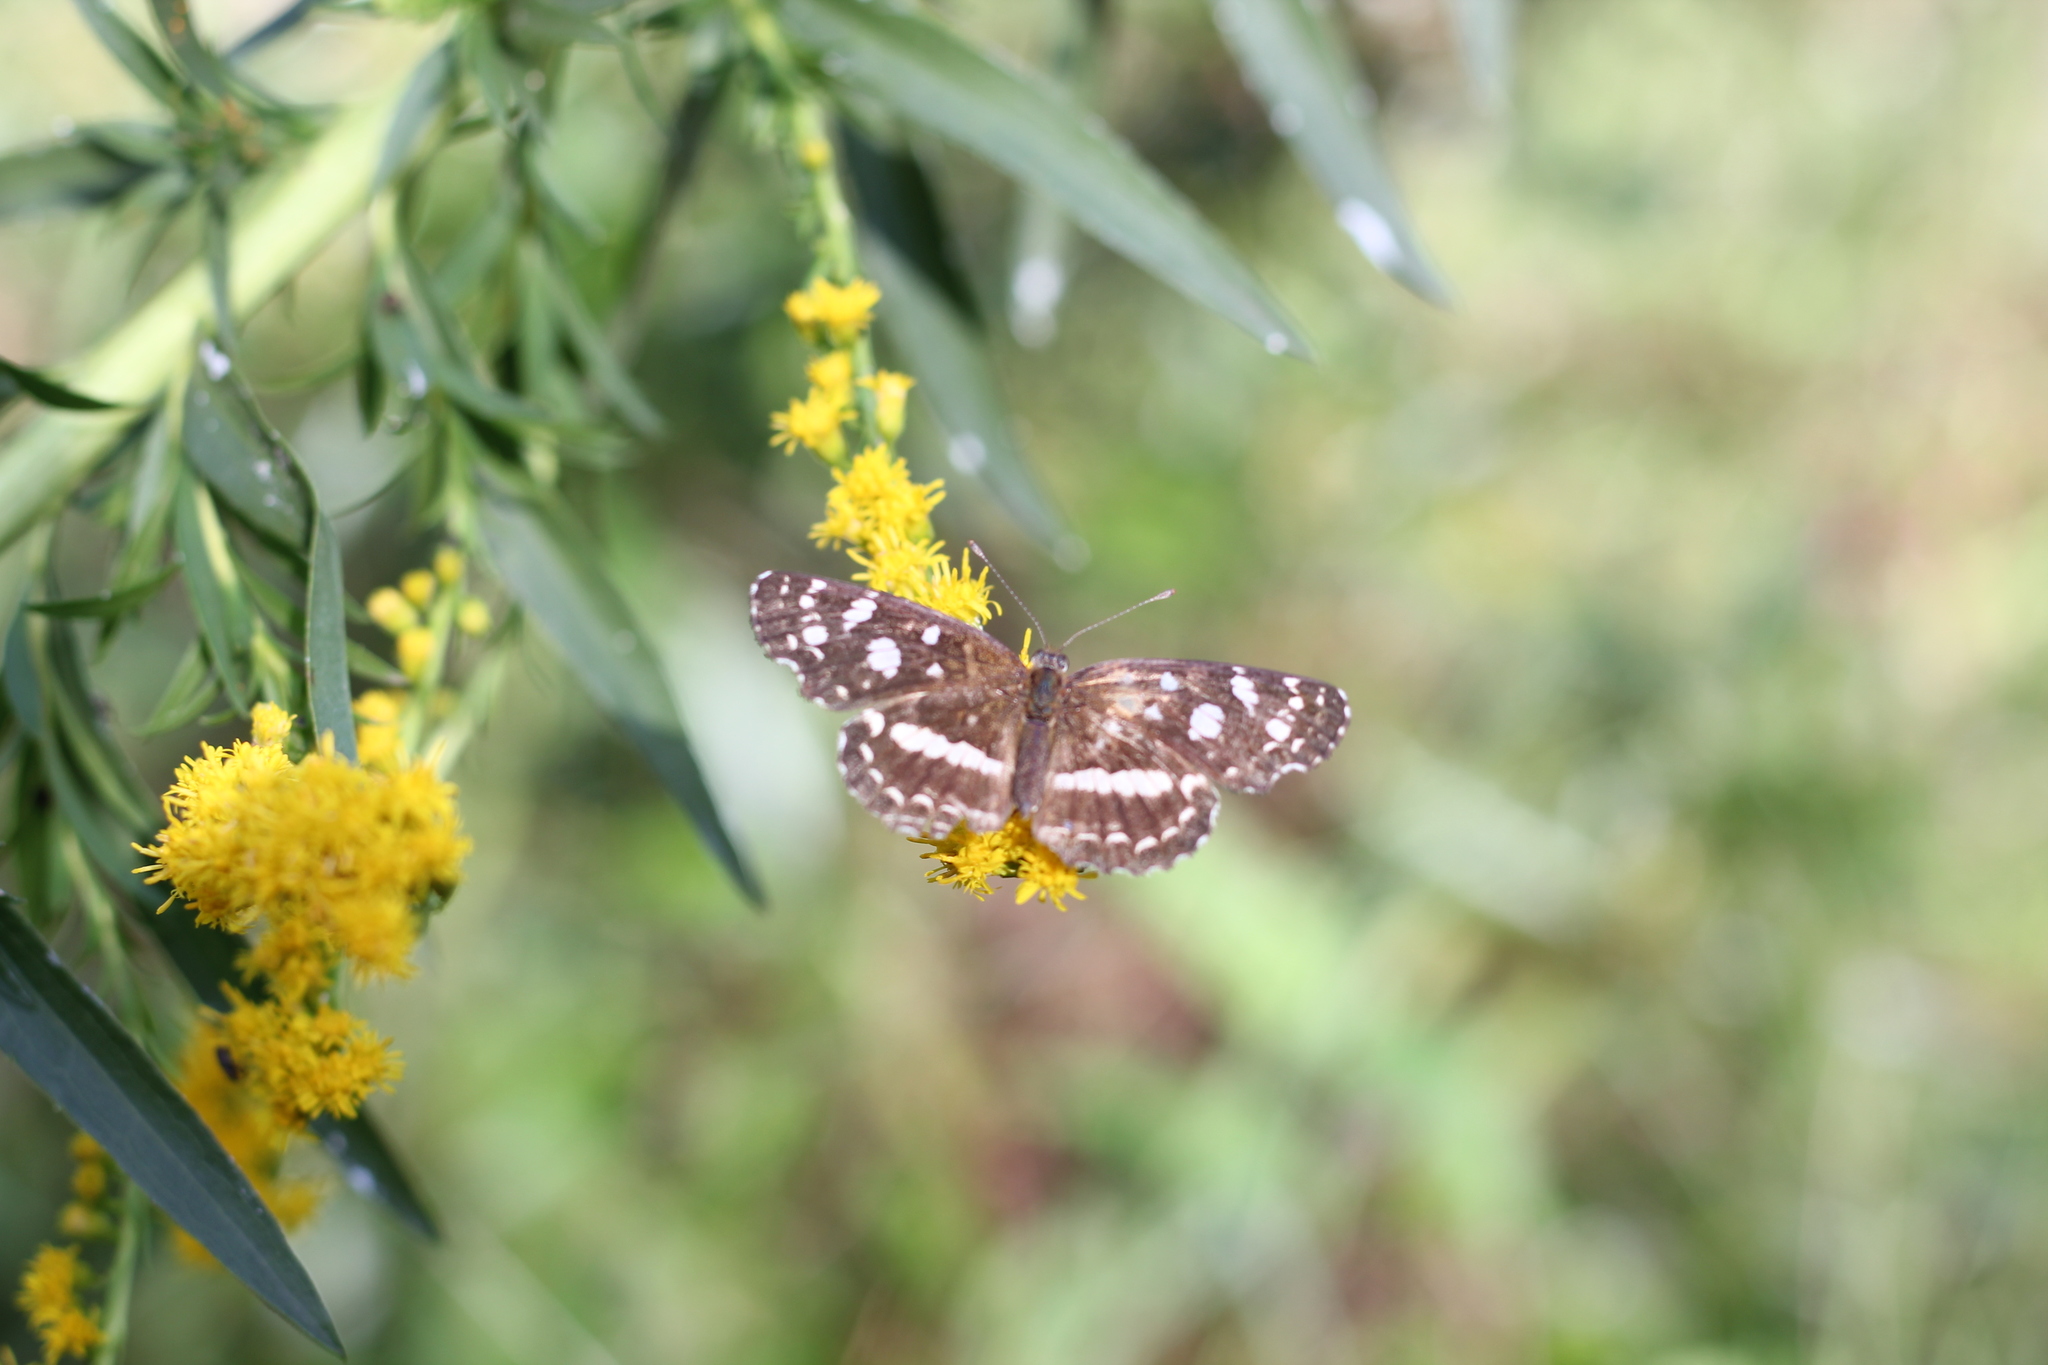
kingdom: Animalia
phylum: Arthropoda
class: Insecta
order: Lepidoptera
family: Nymphalidae
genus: Ortilia
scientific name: Ortilia ithra
